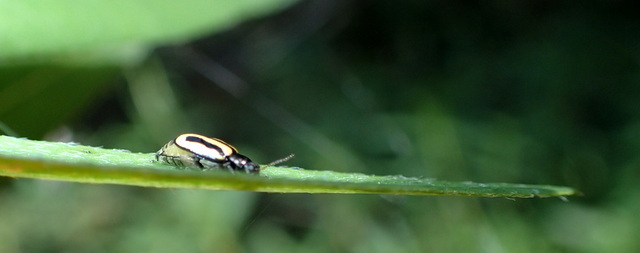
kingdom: Animalia
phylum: Arthropoda
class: Insecta
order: Coleoptera
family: Chrysomelidae
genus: Agasicles
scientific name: Agasicles hygrophila
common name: Alligatorweed flea beetle
